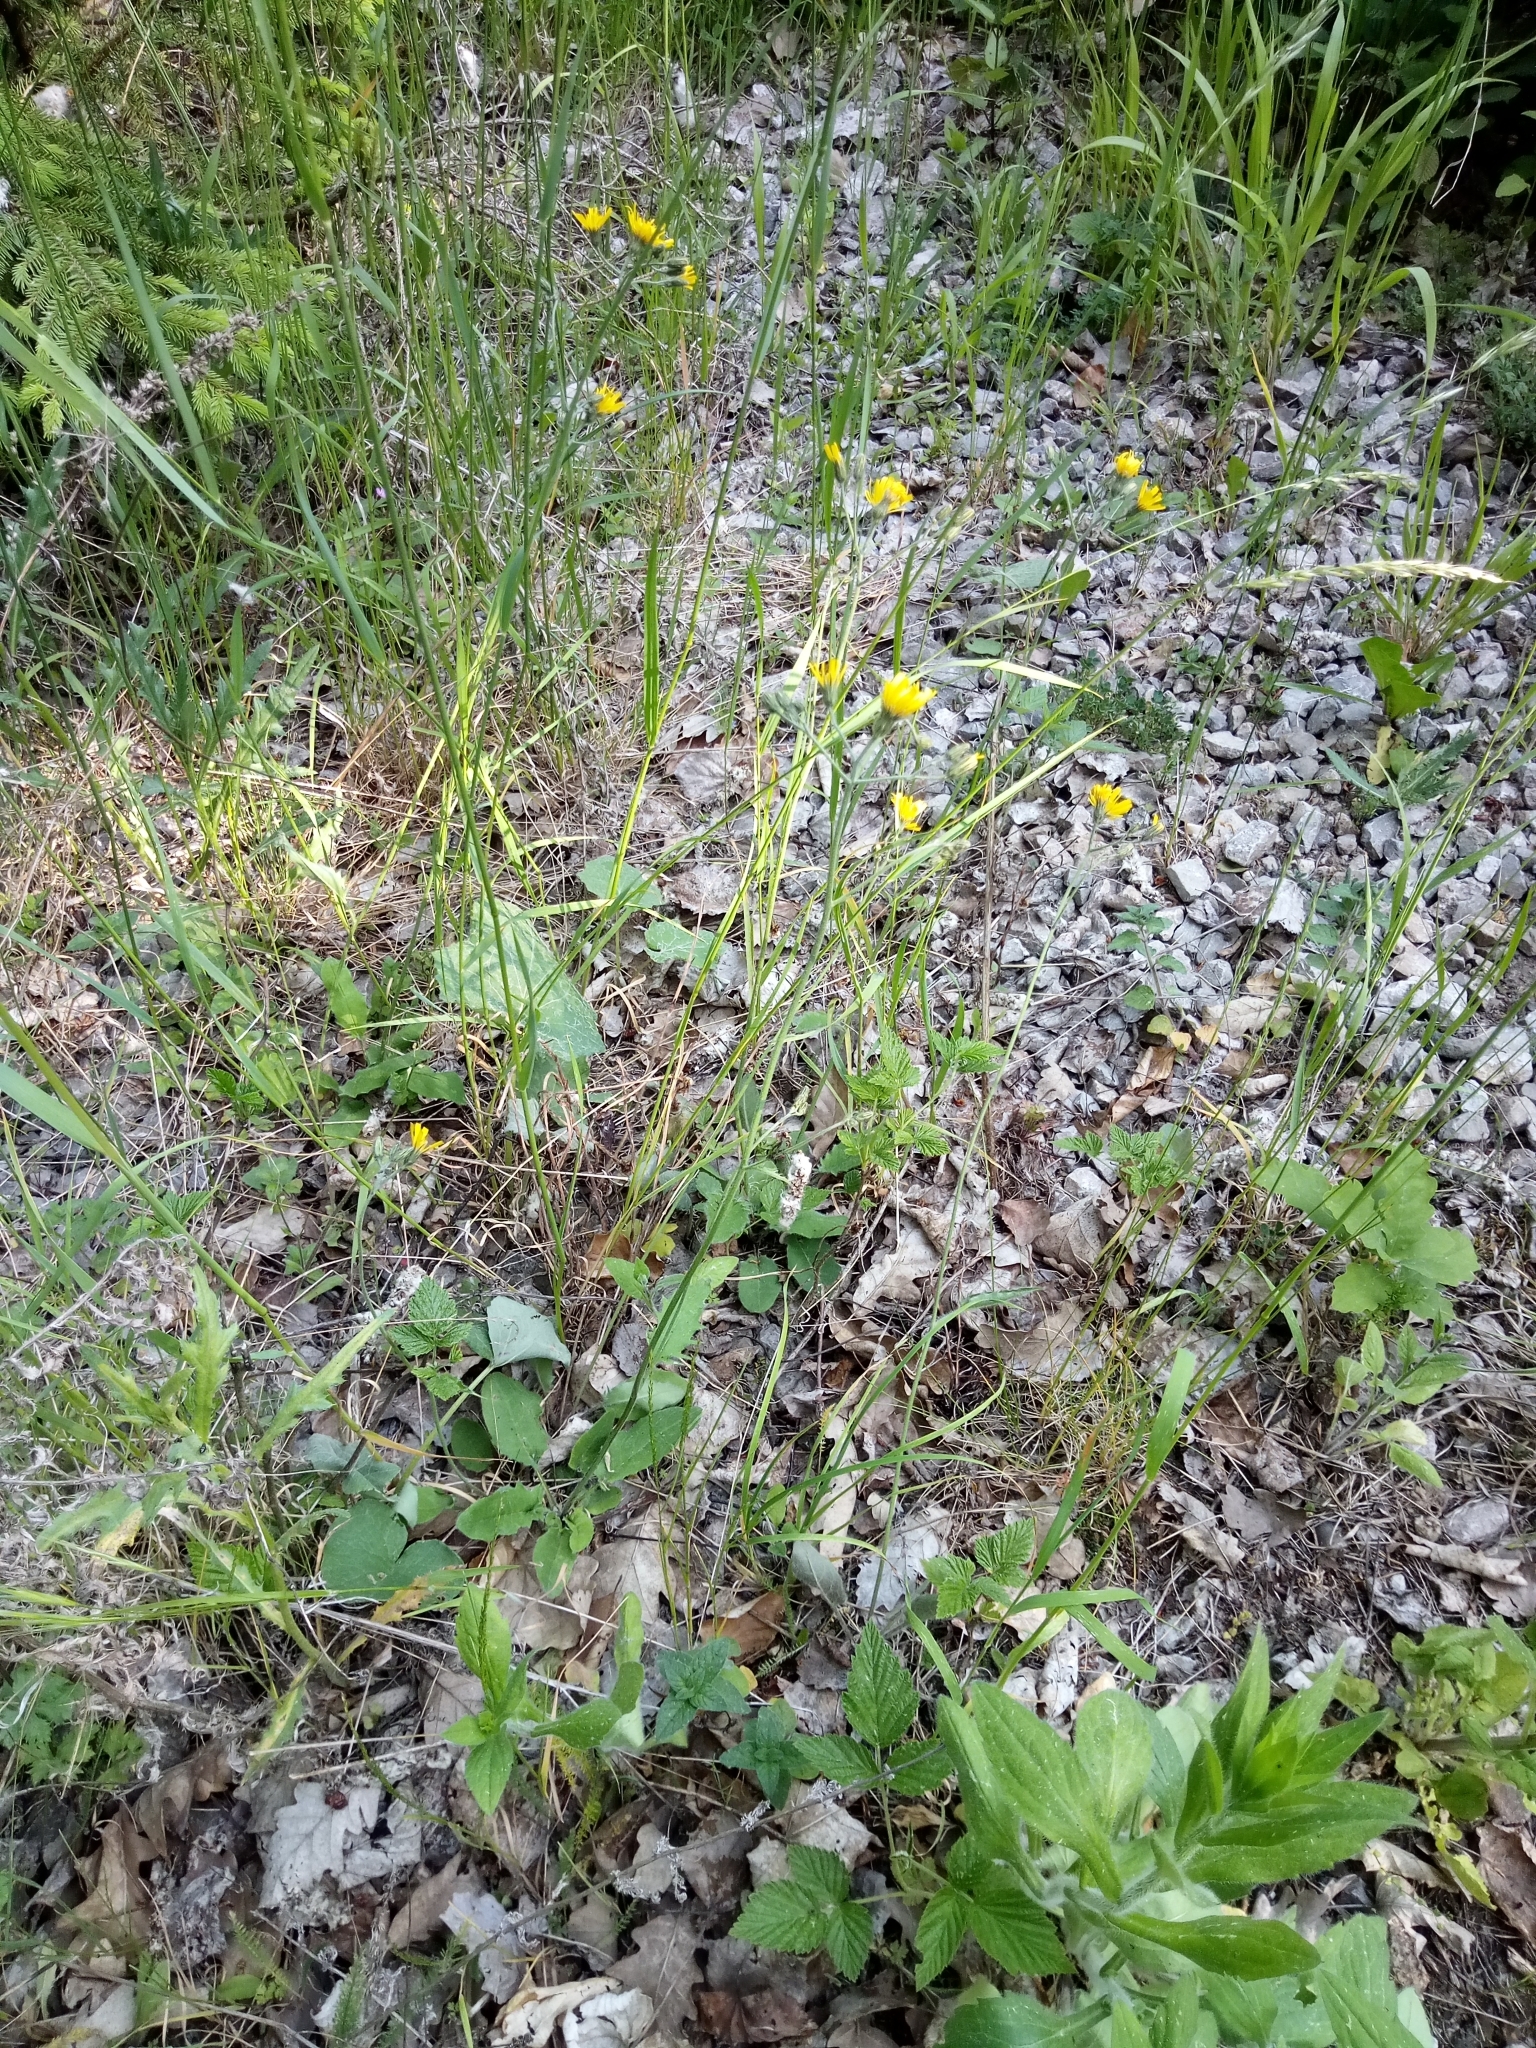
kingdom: Plantae
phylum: Tracheophyta
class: Magnoliopsida
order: Asterales
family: Asteraceae
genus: Hieracium
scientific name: Hieracium murorum
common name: Wall hawkweed
